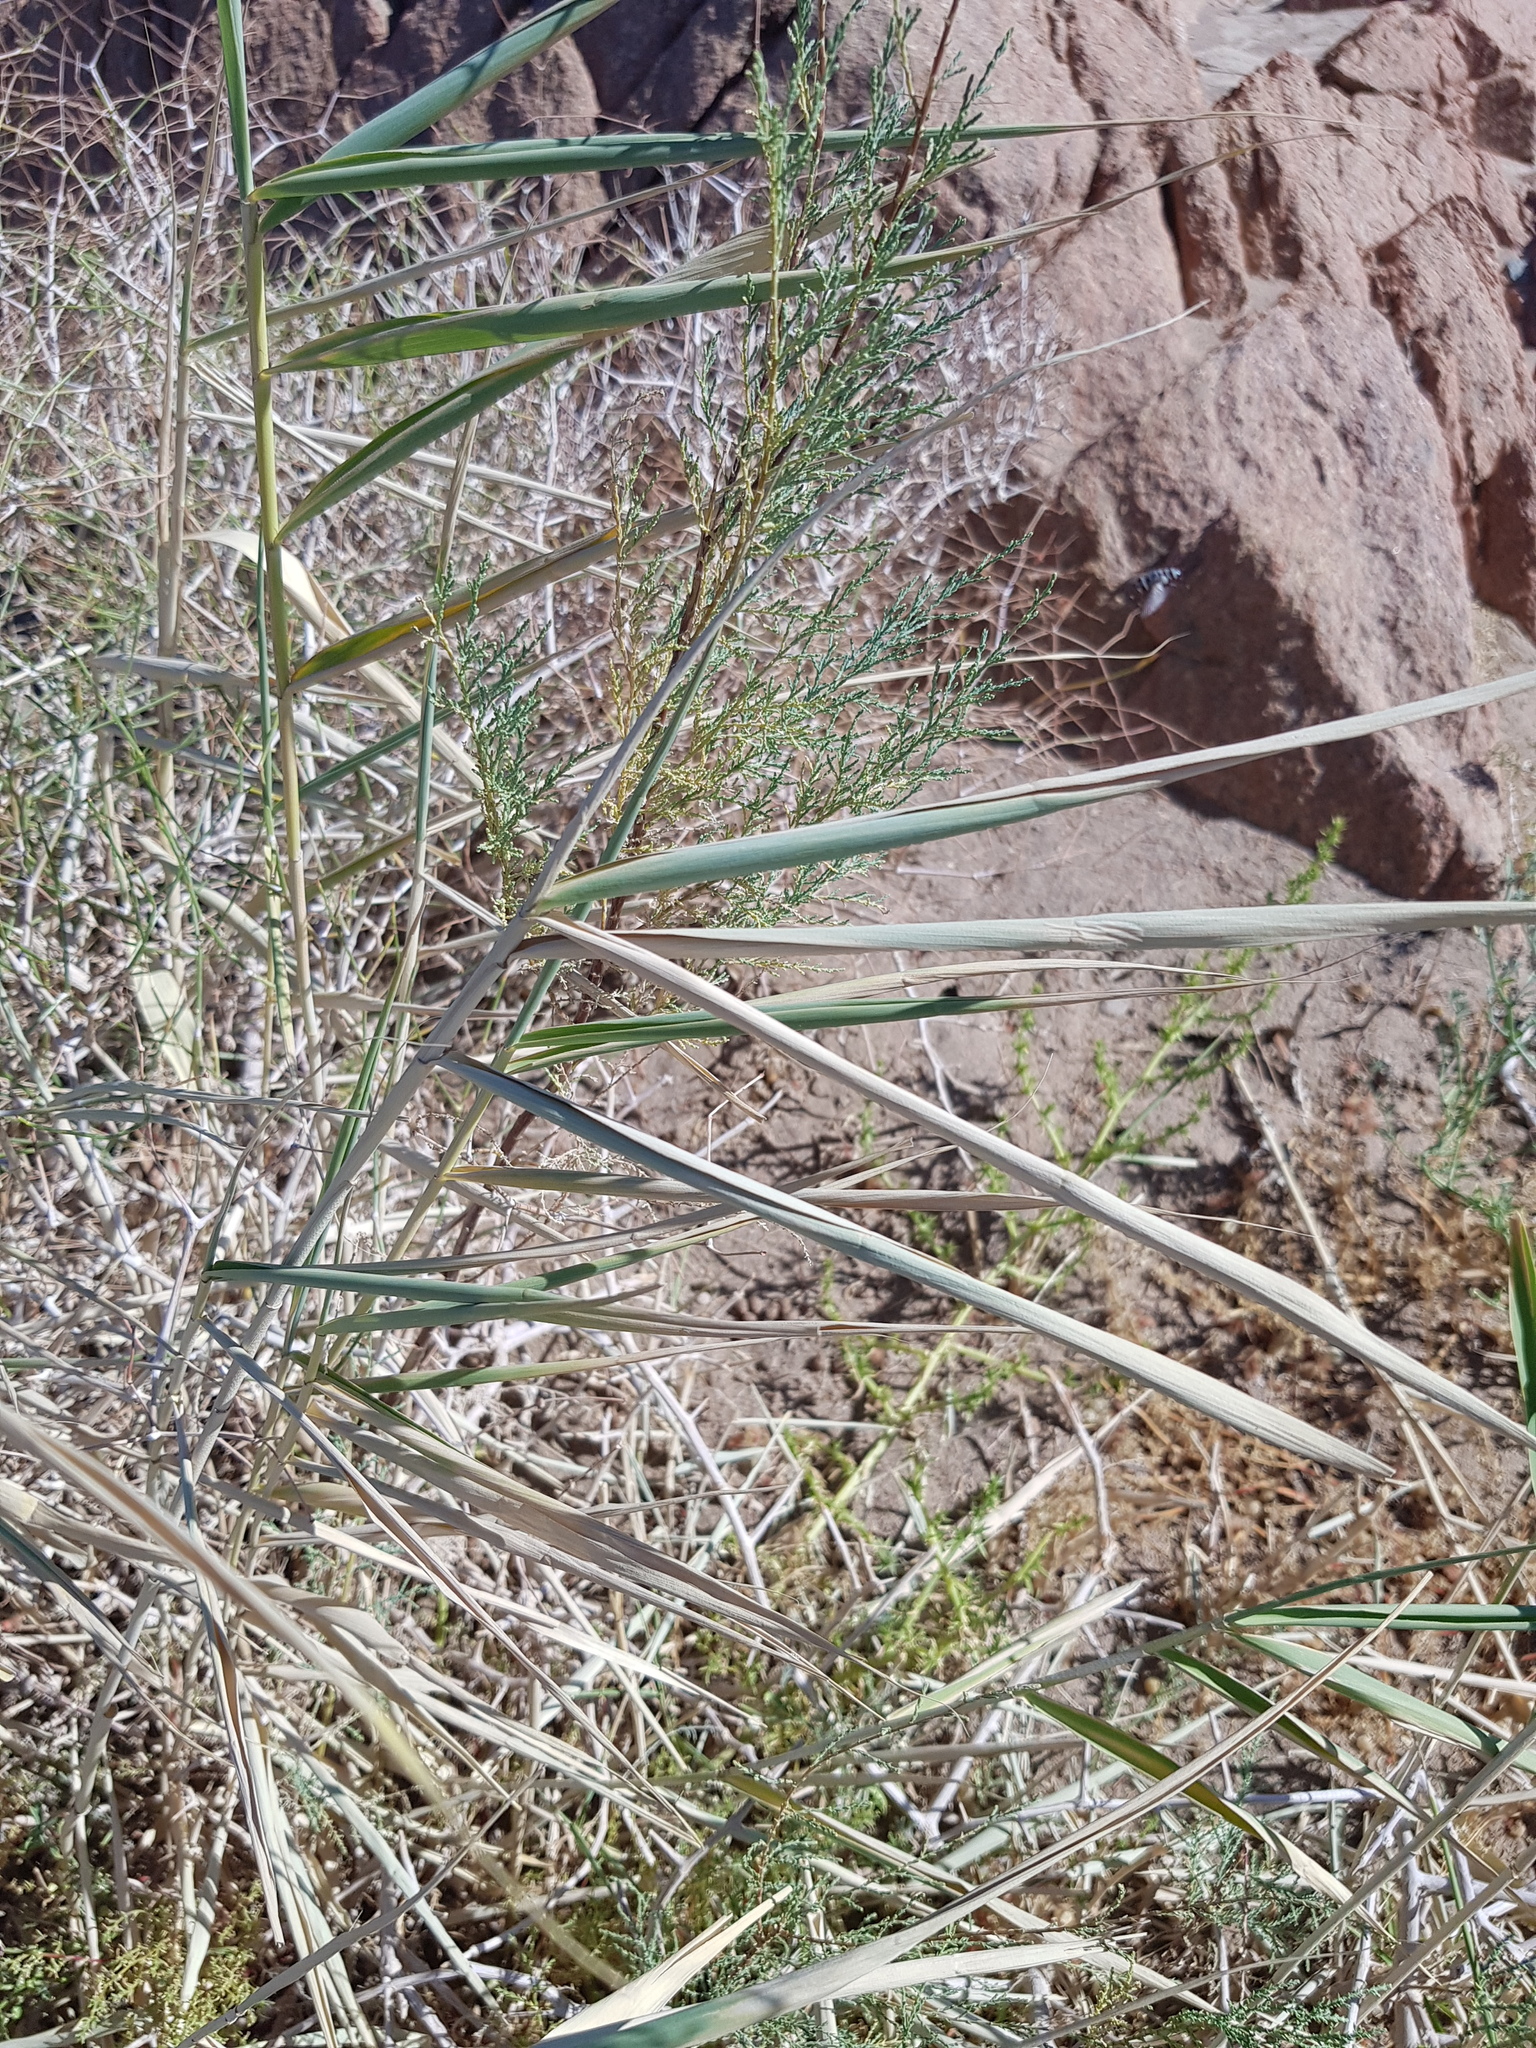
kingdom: Plantae
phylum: Tracheophyta
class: Liliopsida
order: Poales
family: Poaceae
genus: Phragmites
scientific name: Phragmites australis
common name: Common reed
